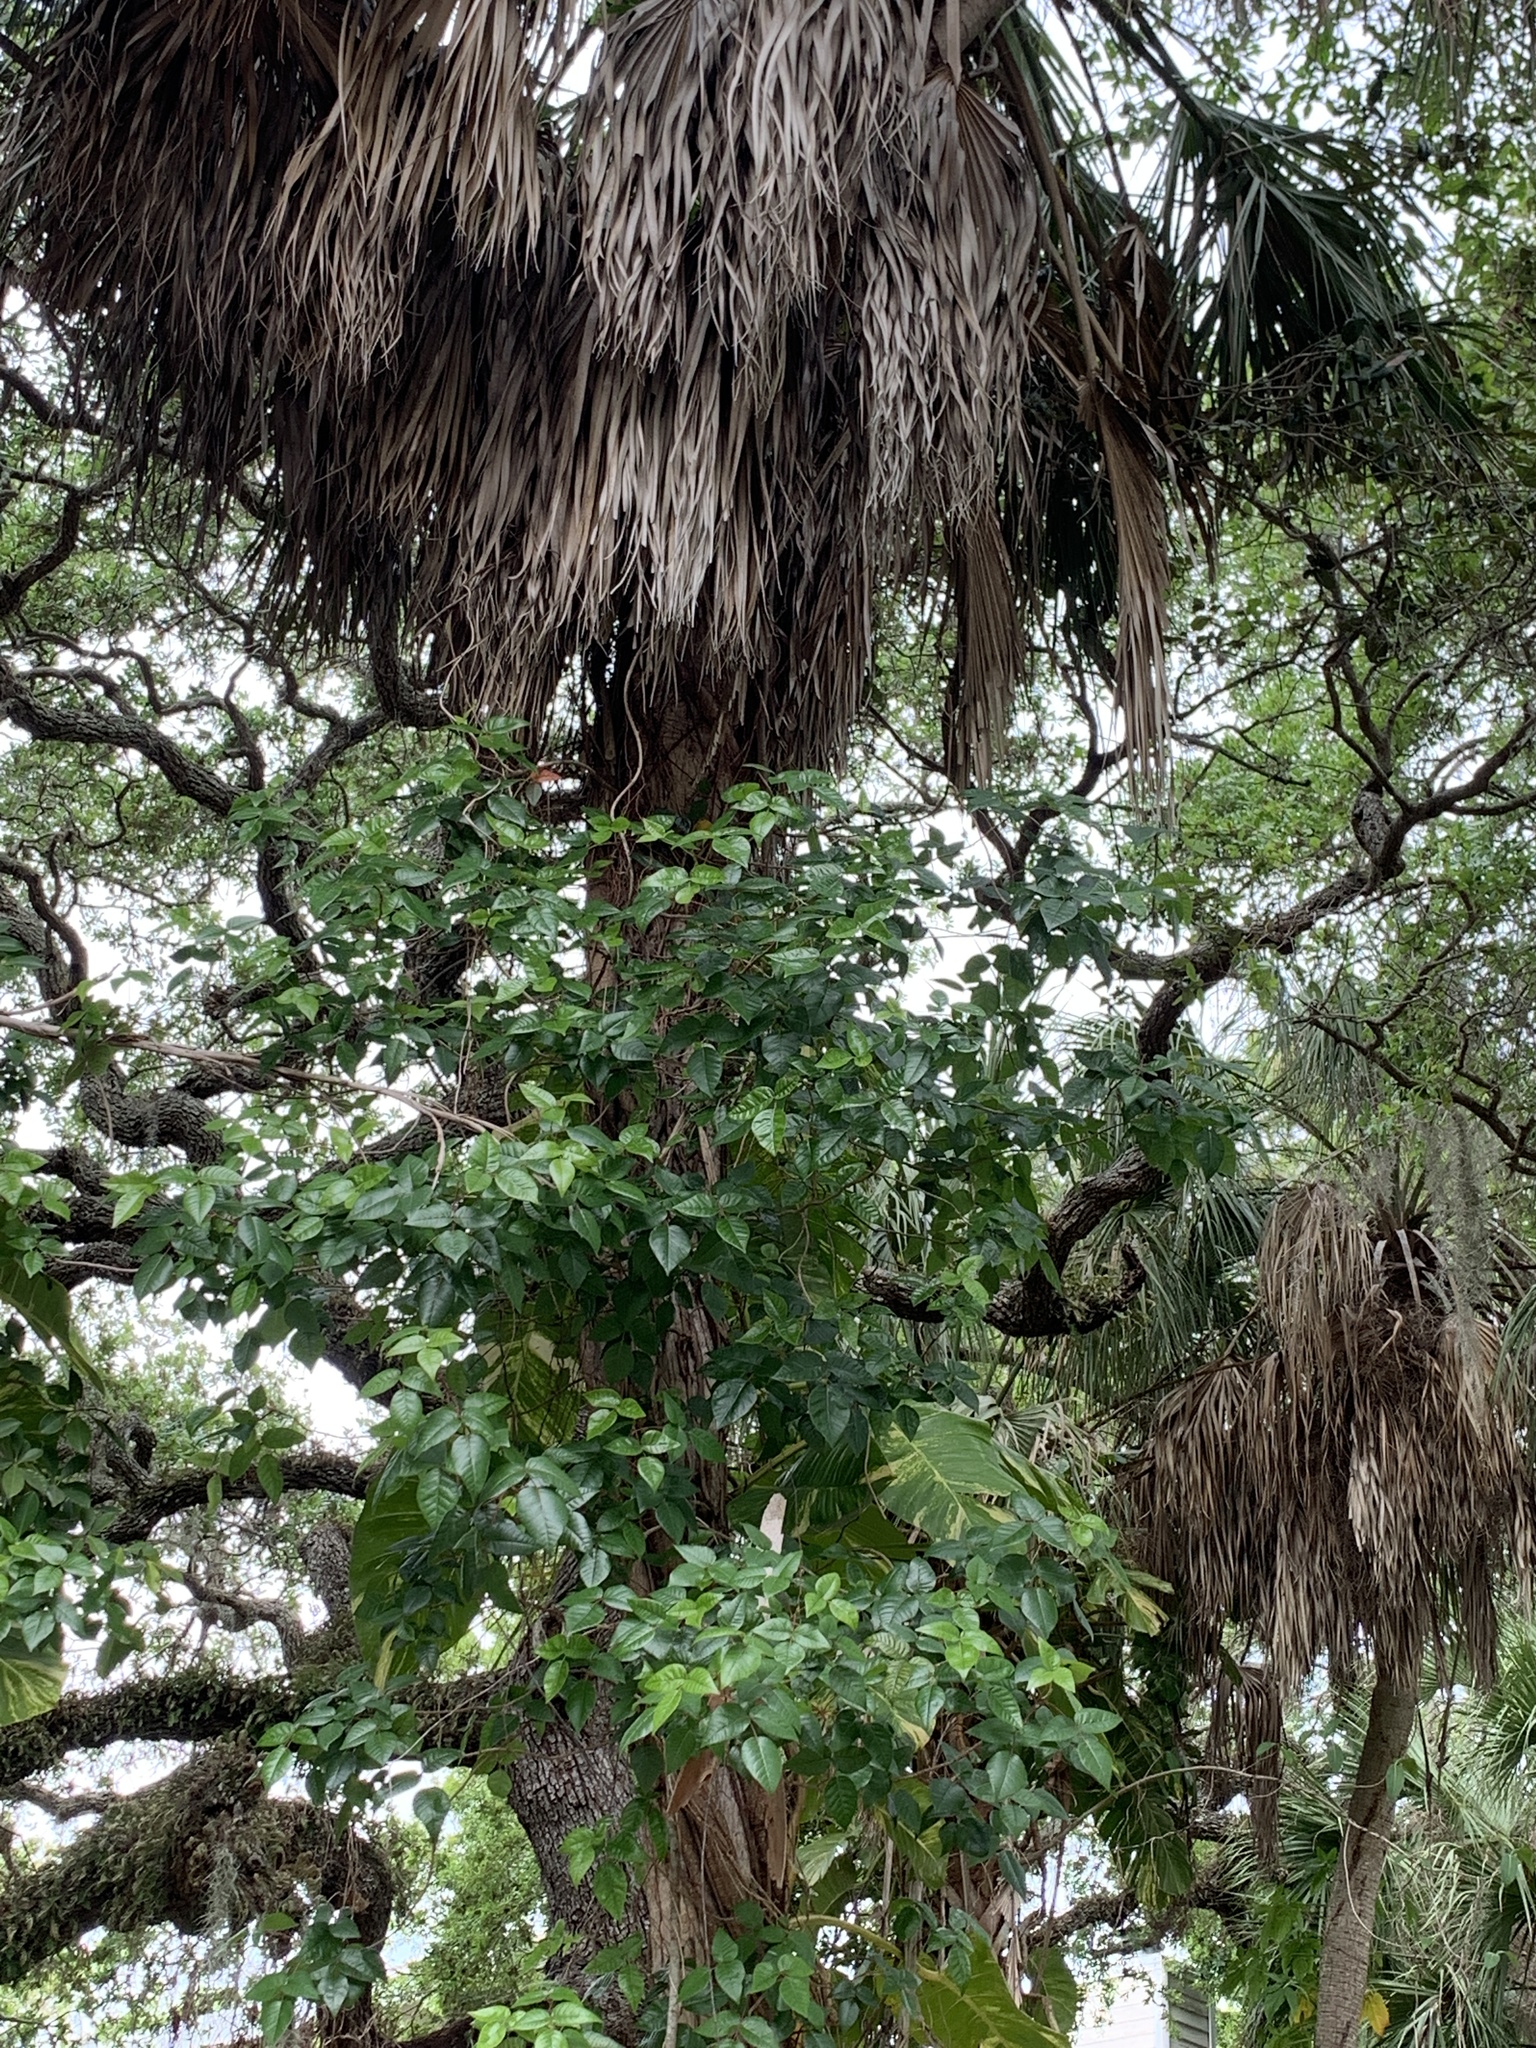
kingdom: Plantae
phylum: Tracheophyta
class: Magnoliopsida
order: Sapindales
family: Anacardiaceae
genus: Toxicodendron
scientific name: Toxicodendron radicans
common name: Poison ivy
